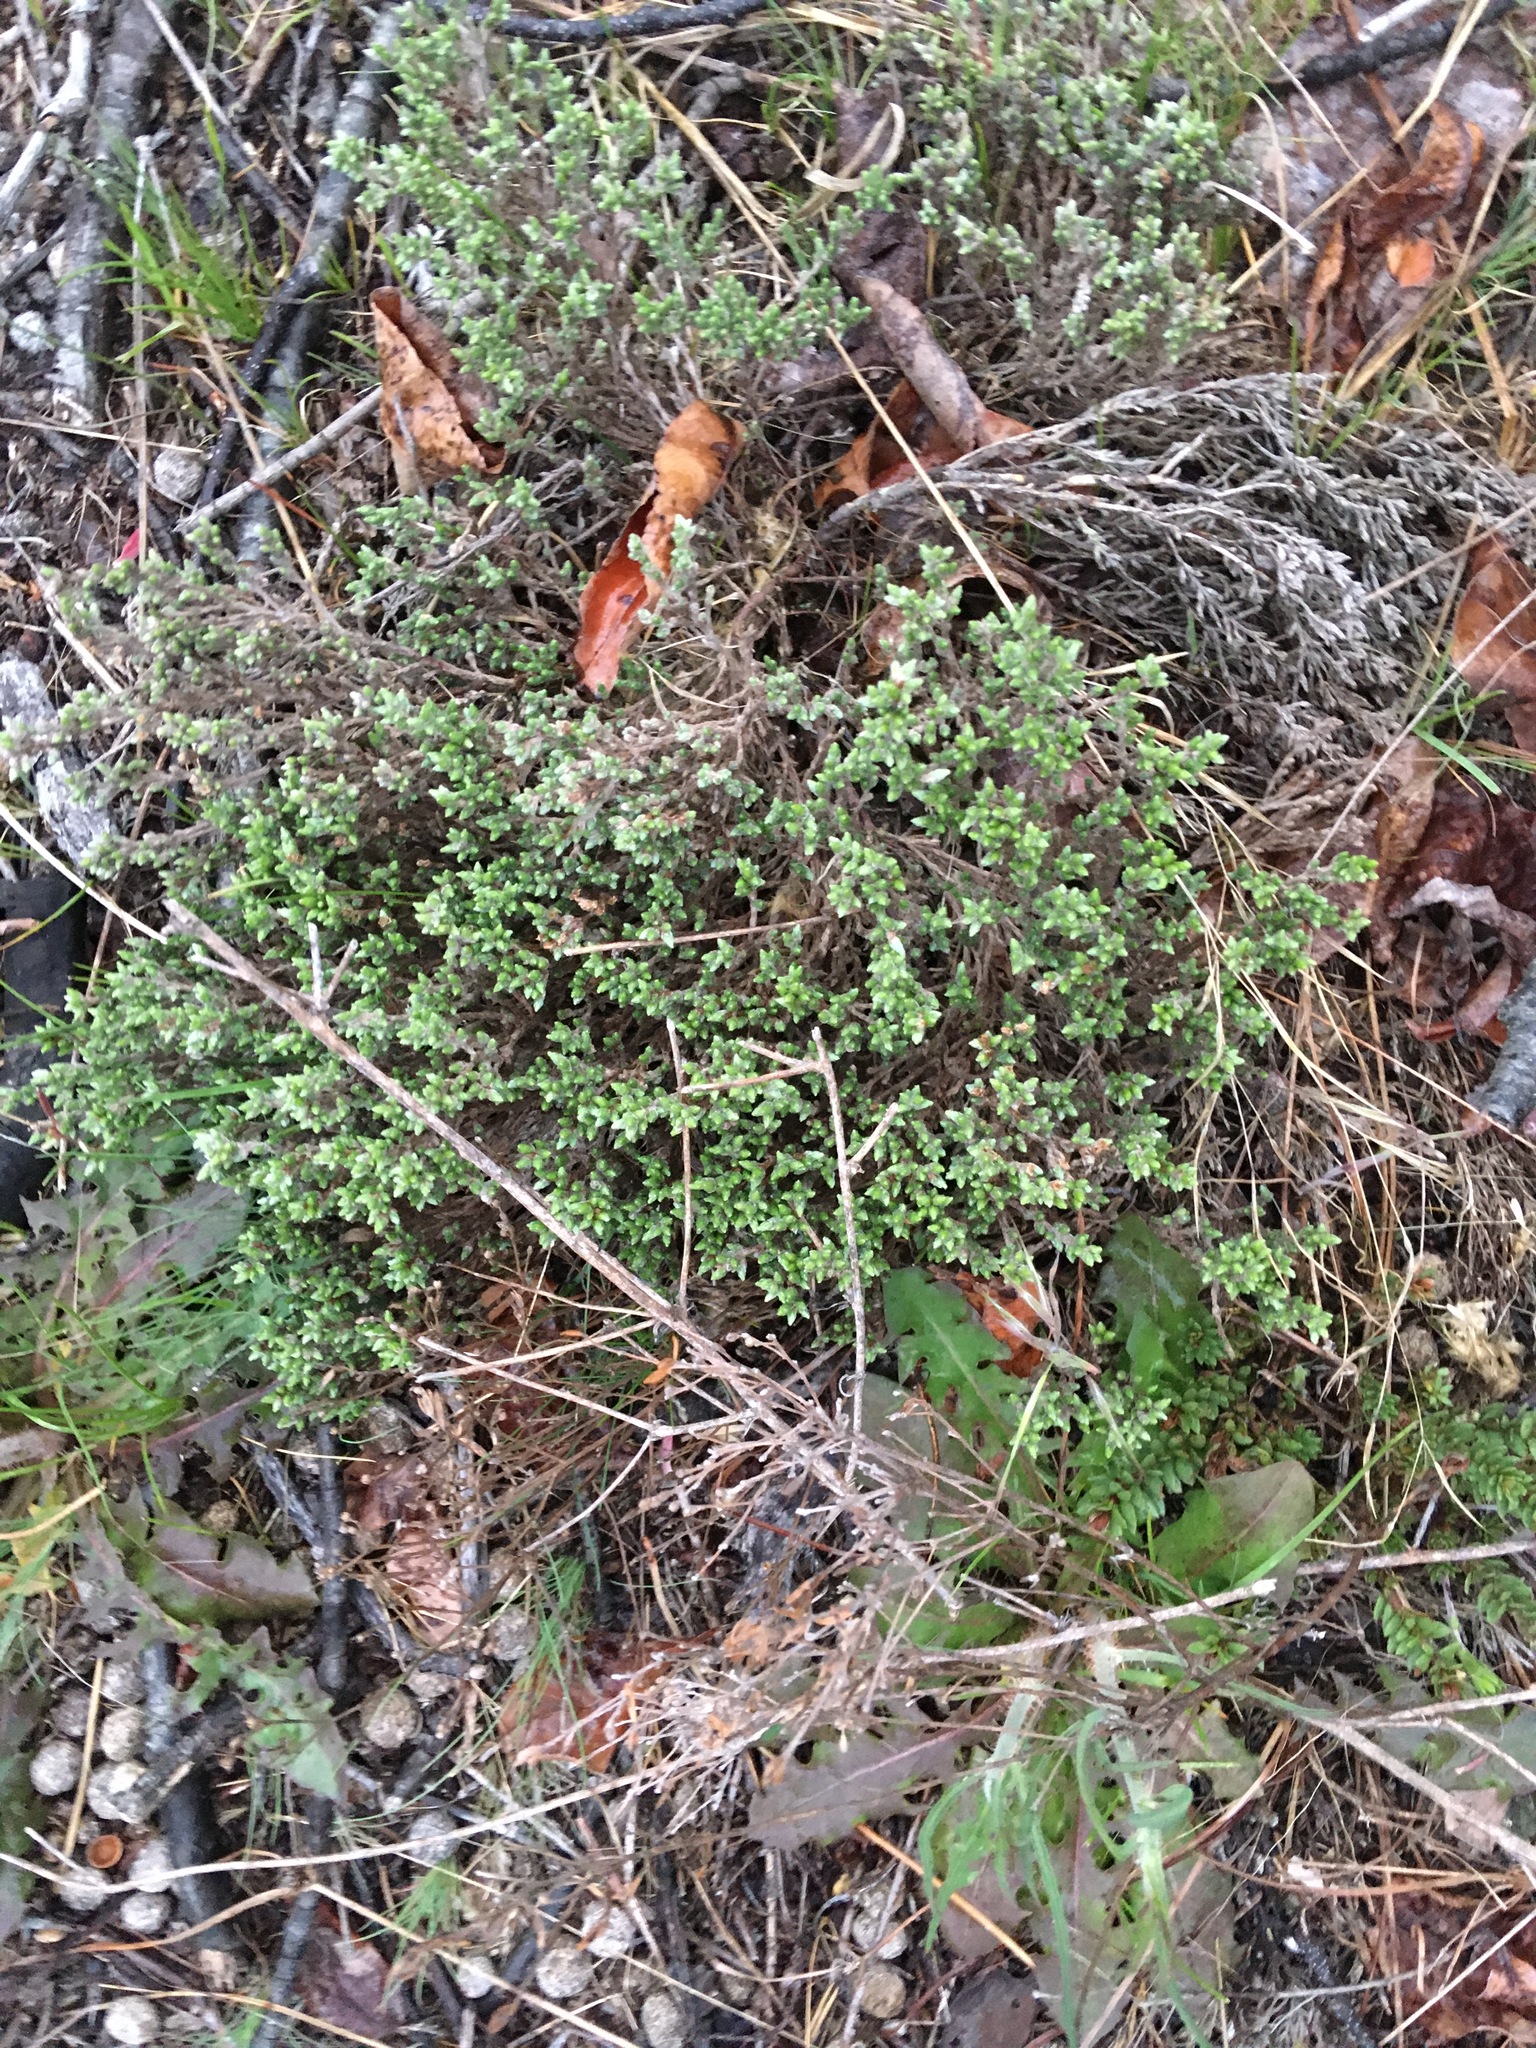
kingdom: Plantae
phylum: Tracheophyta
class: Magnoliopsida
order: Malvales
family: Cistaceae
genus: Hudsonia
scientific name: Hudsonia tomentosa
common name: Beach-heath
